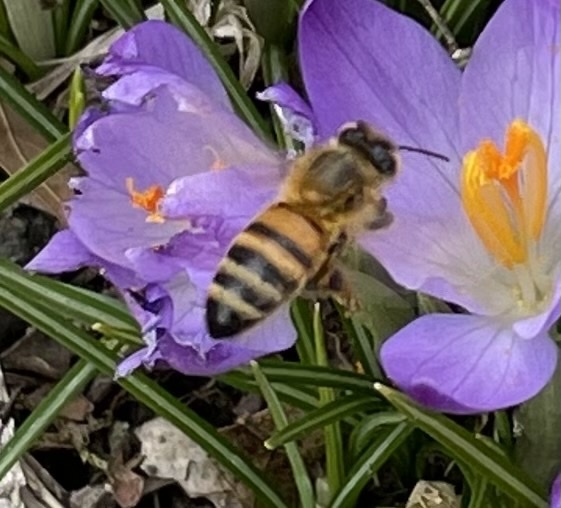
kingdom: Animalia
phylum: Arthropoda
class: Insecta
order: Hymenoptera
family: Apidae
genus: Apis
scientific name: Apis mellifera
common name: Honey bee
